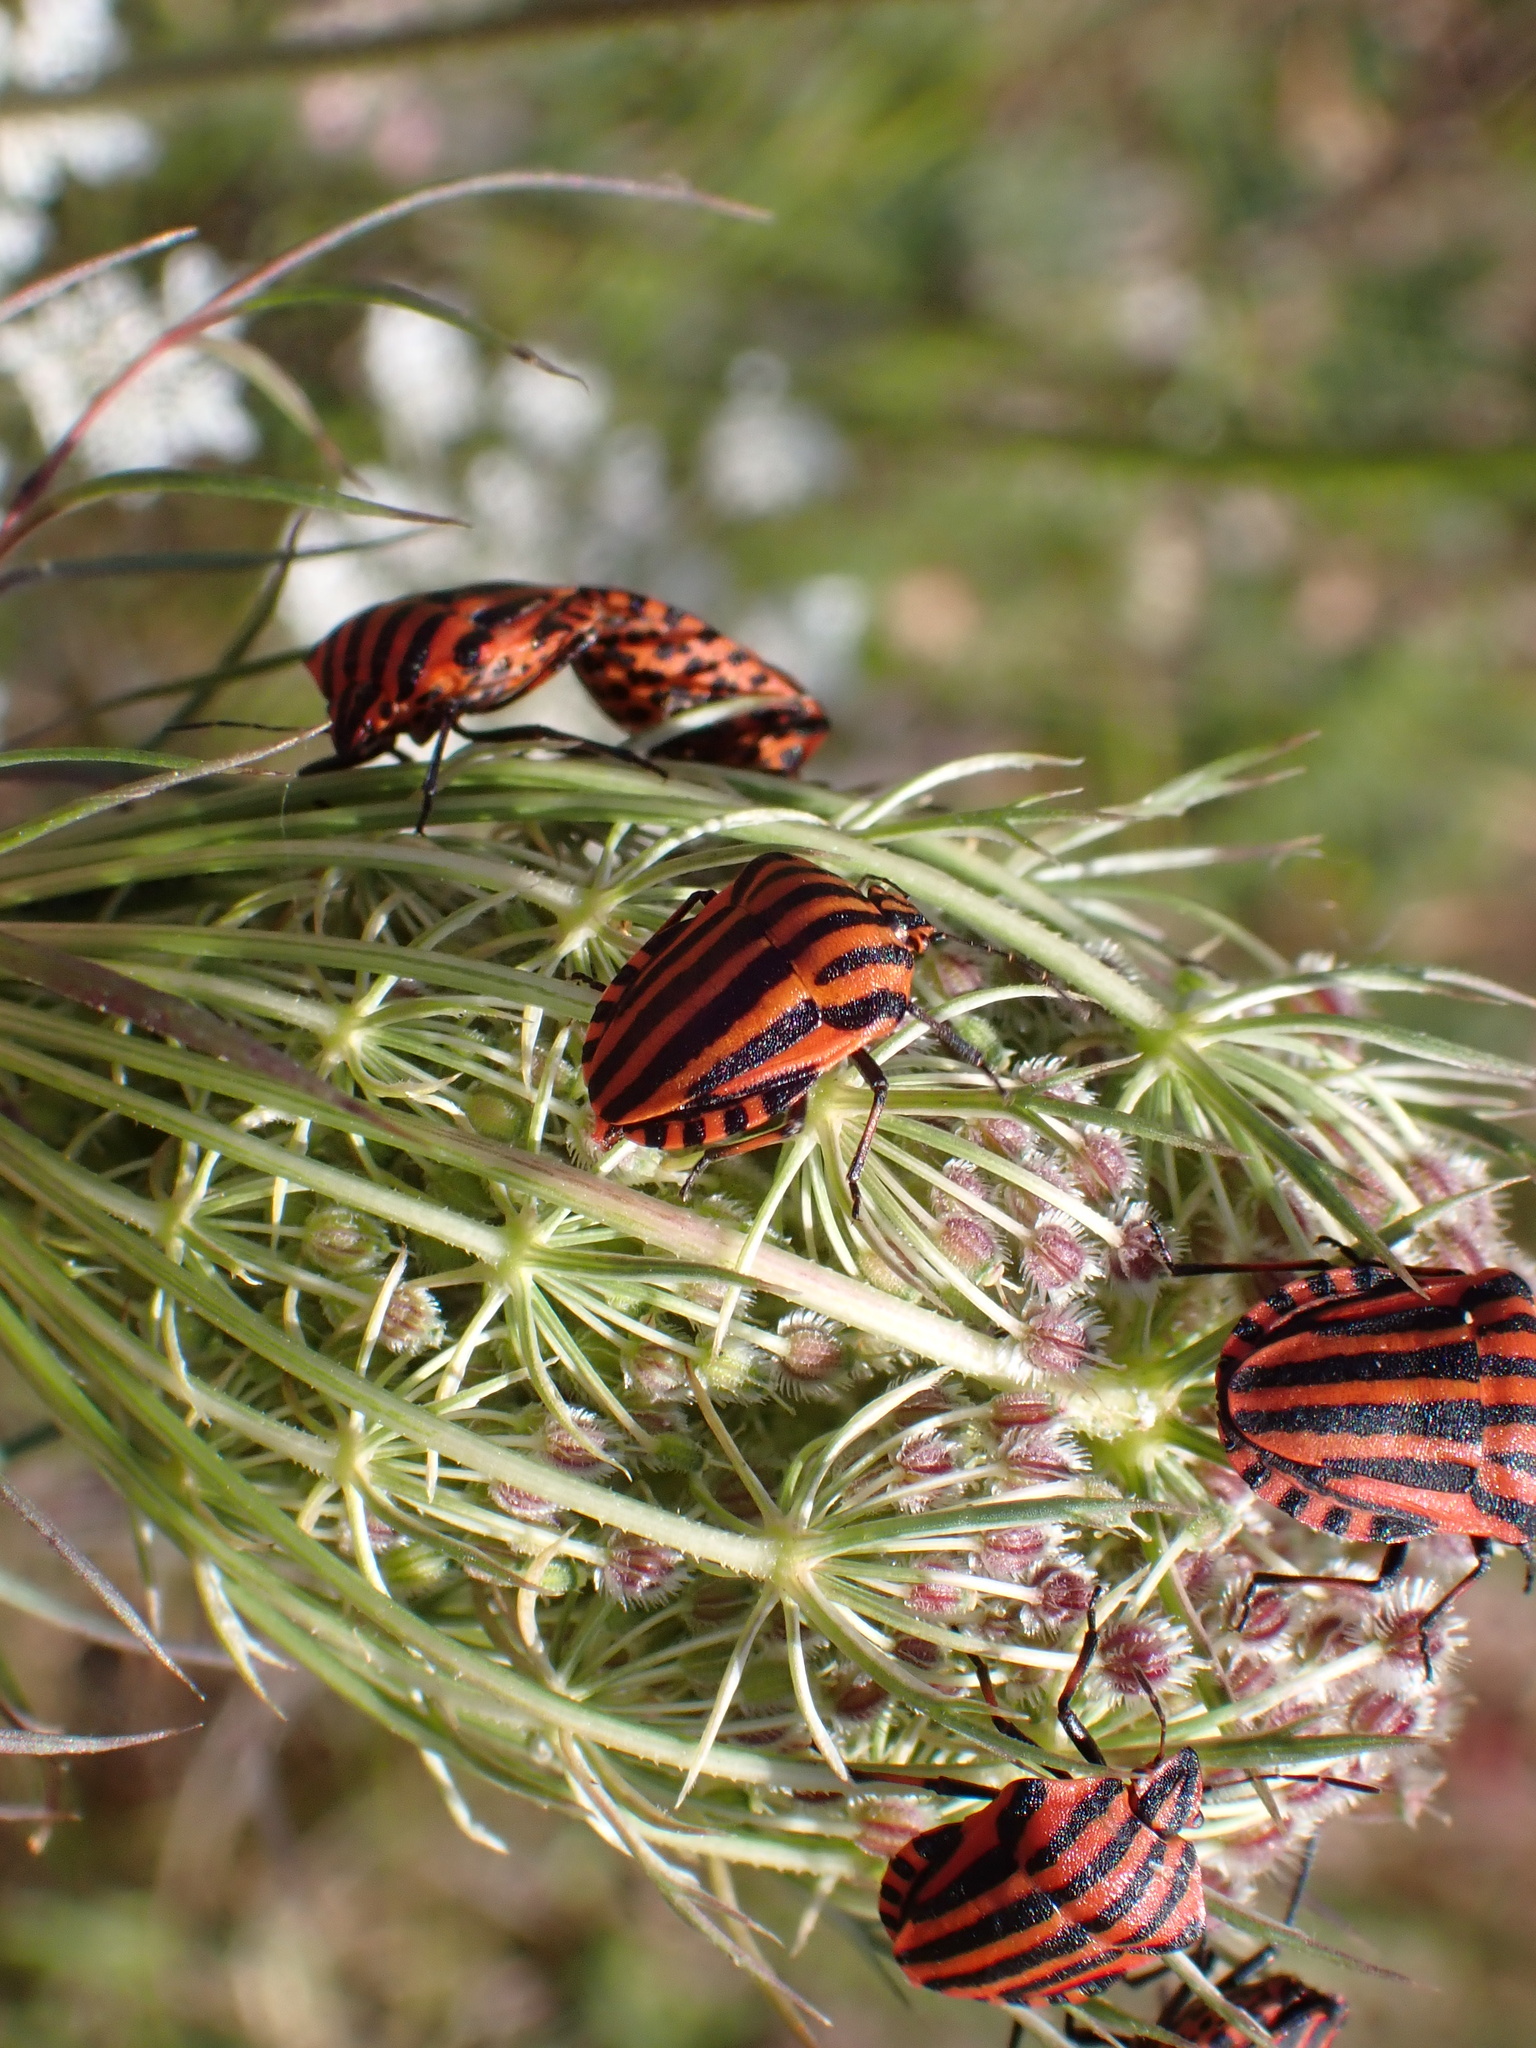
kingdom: Animalia
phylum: Arthropoda
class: Insecta
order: Hemiptera
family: Pentatomidae
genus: Graphosoma
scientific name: Graphosoma italicum
